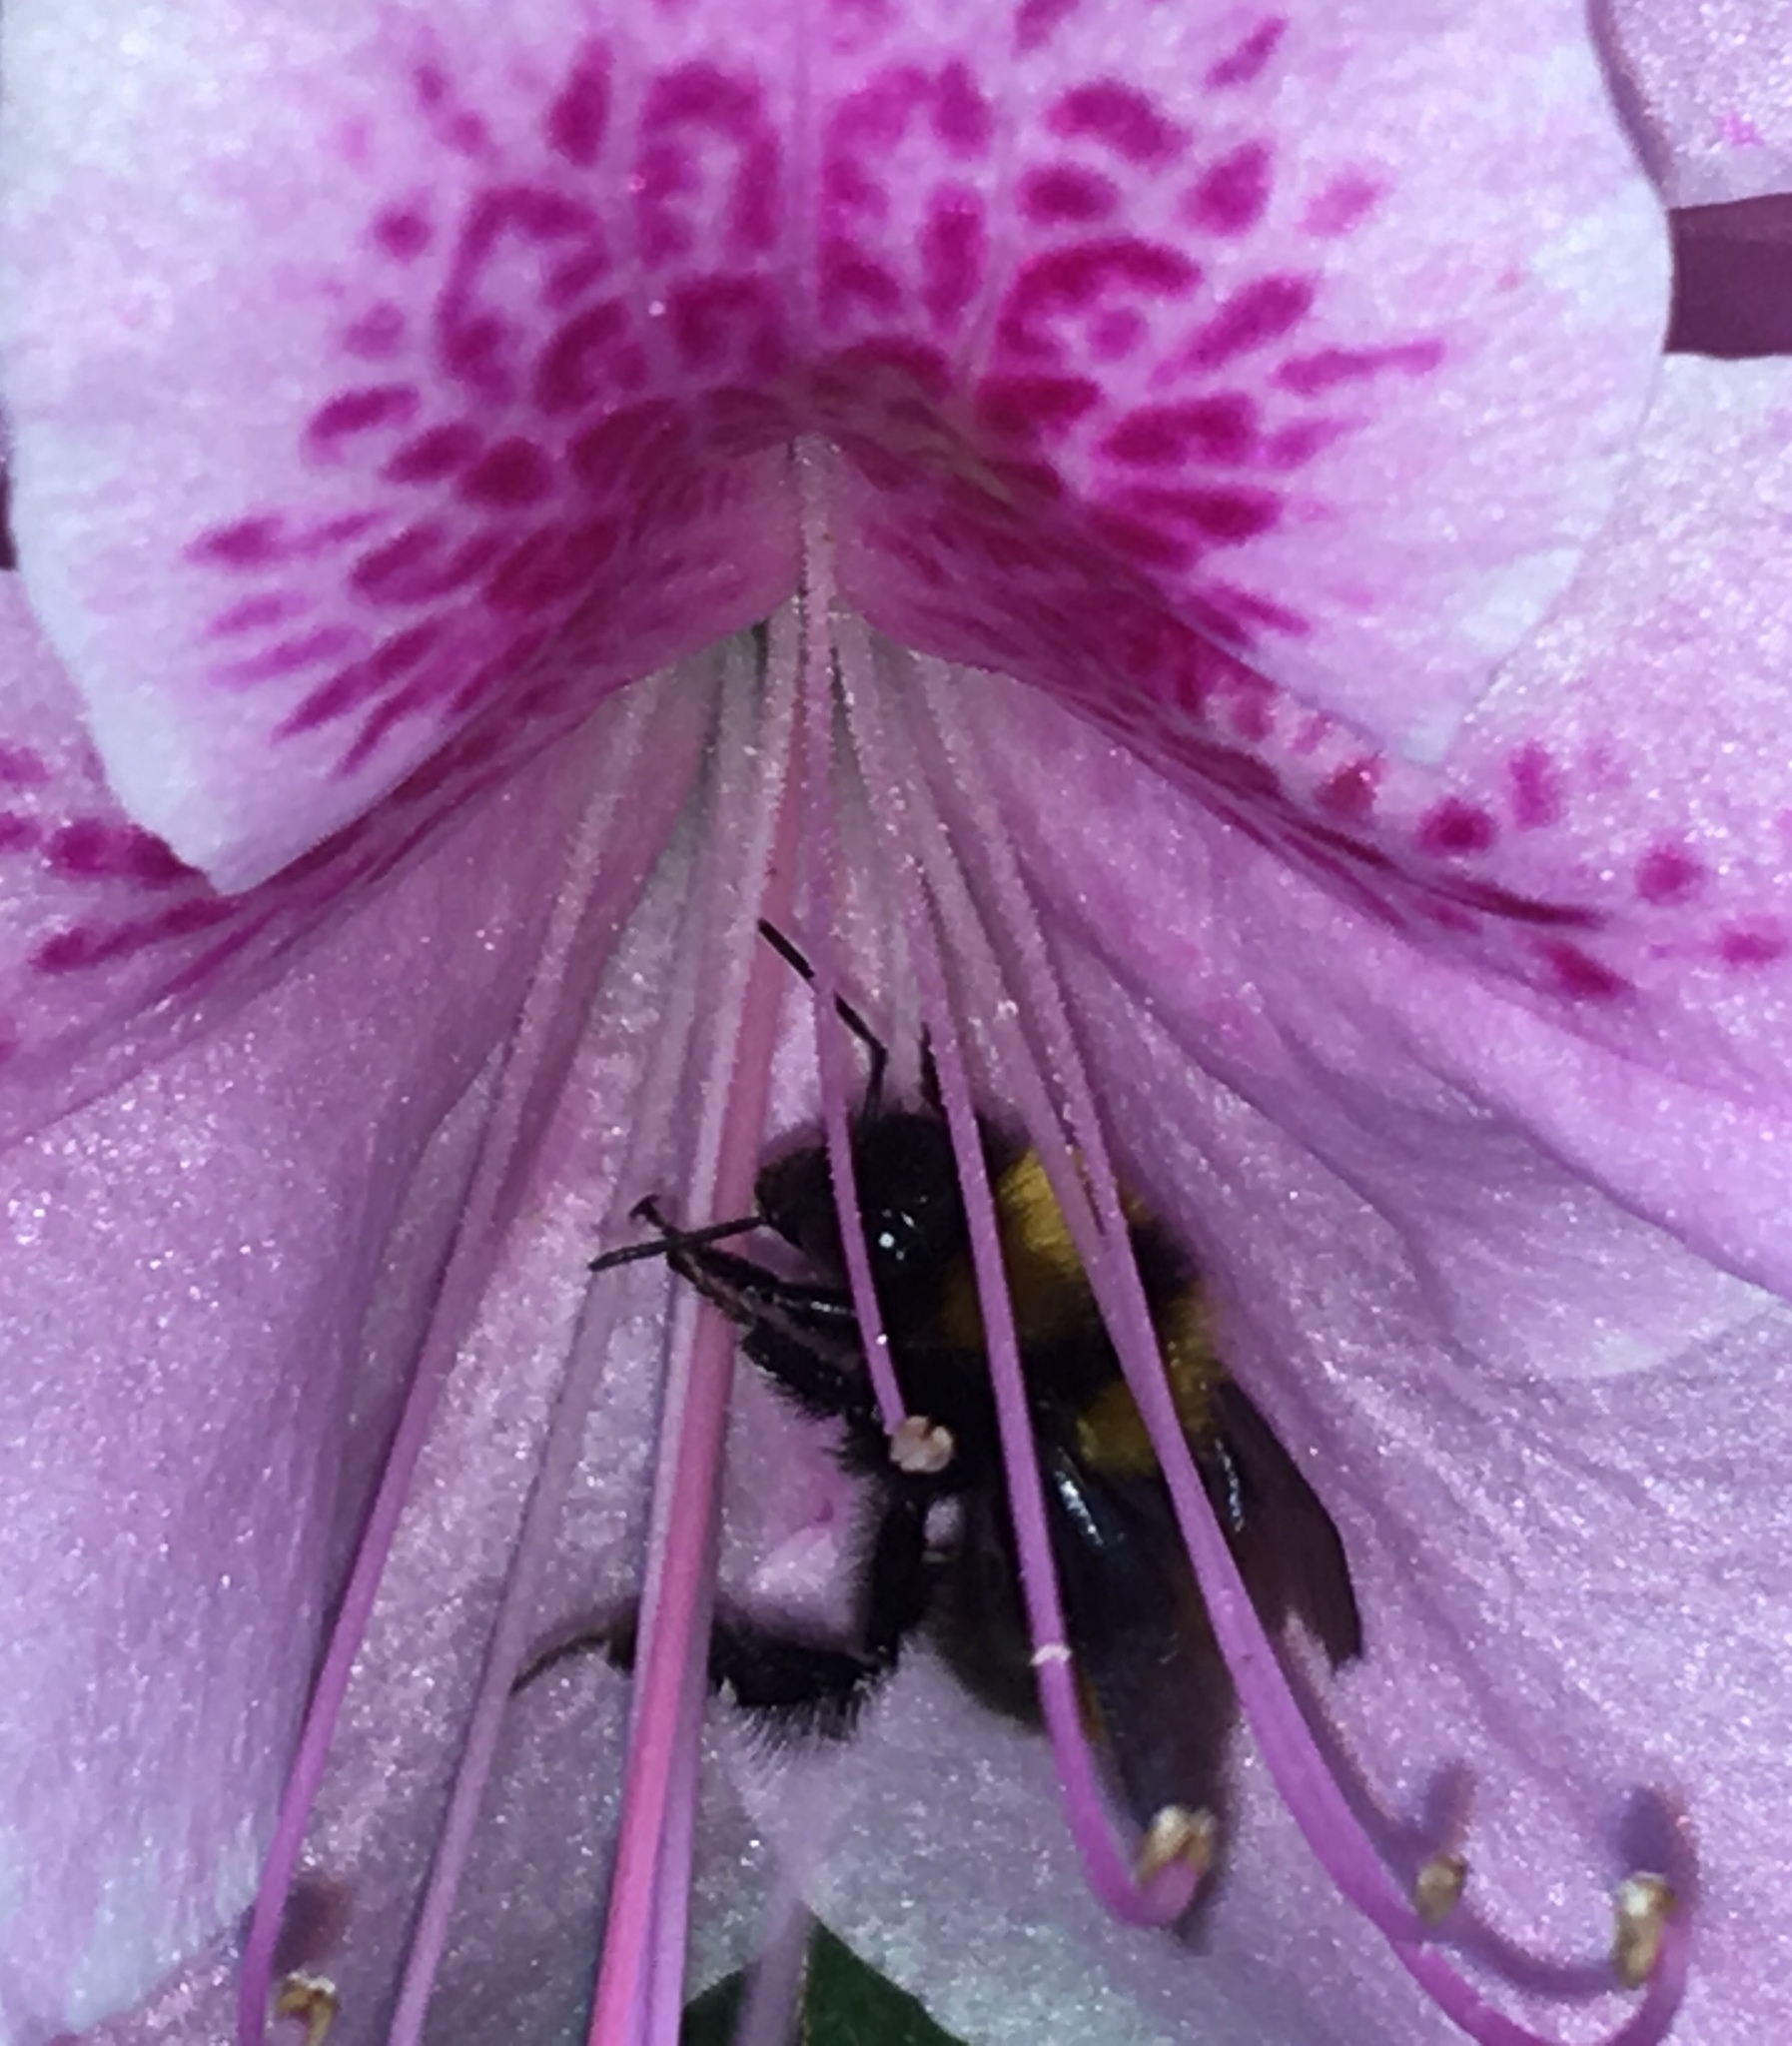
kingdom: Animalia
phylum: Arthropoda
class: Insecta
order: Hymenoptera
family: Apidae
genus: Bombus
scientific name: Bombus hortulanus
